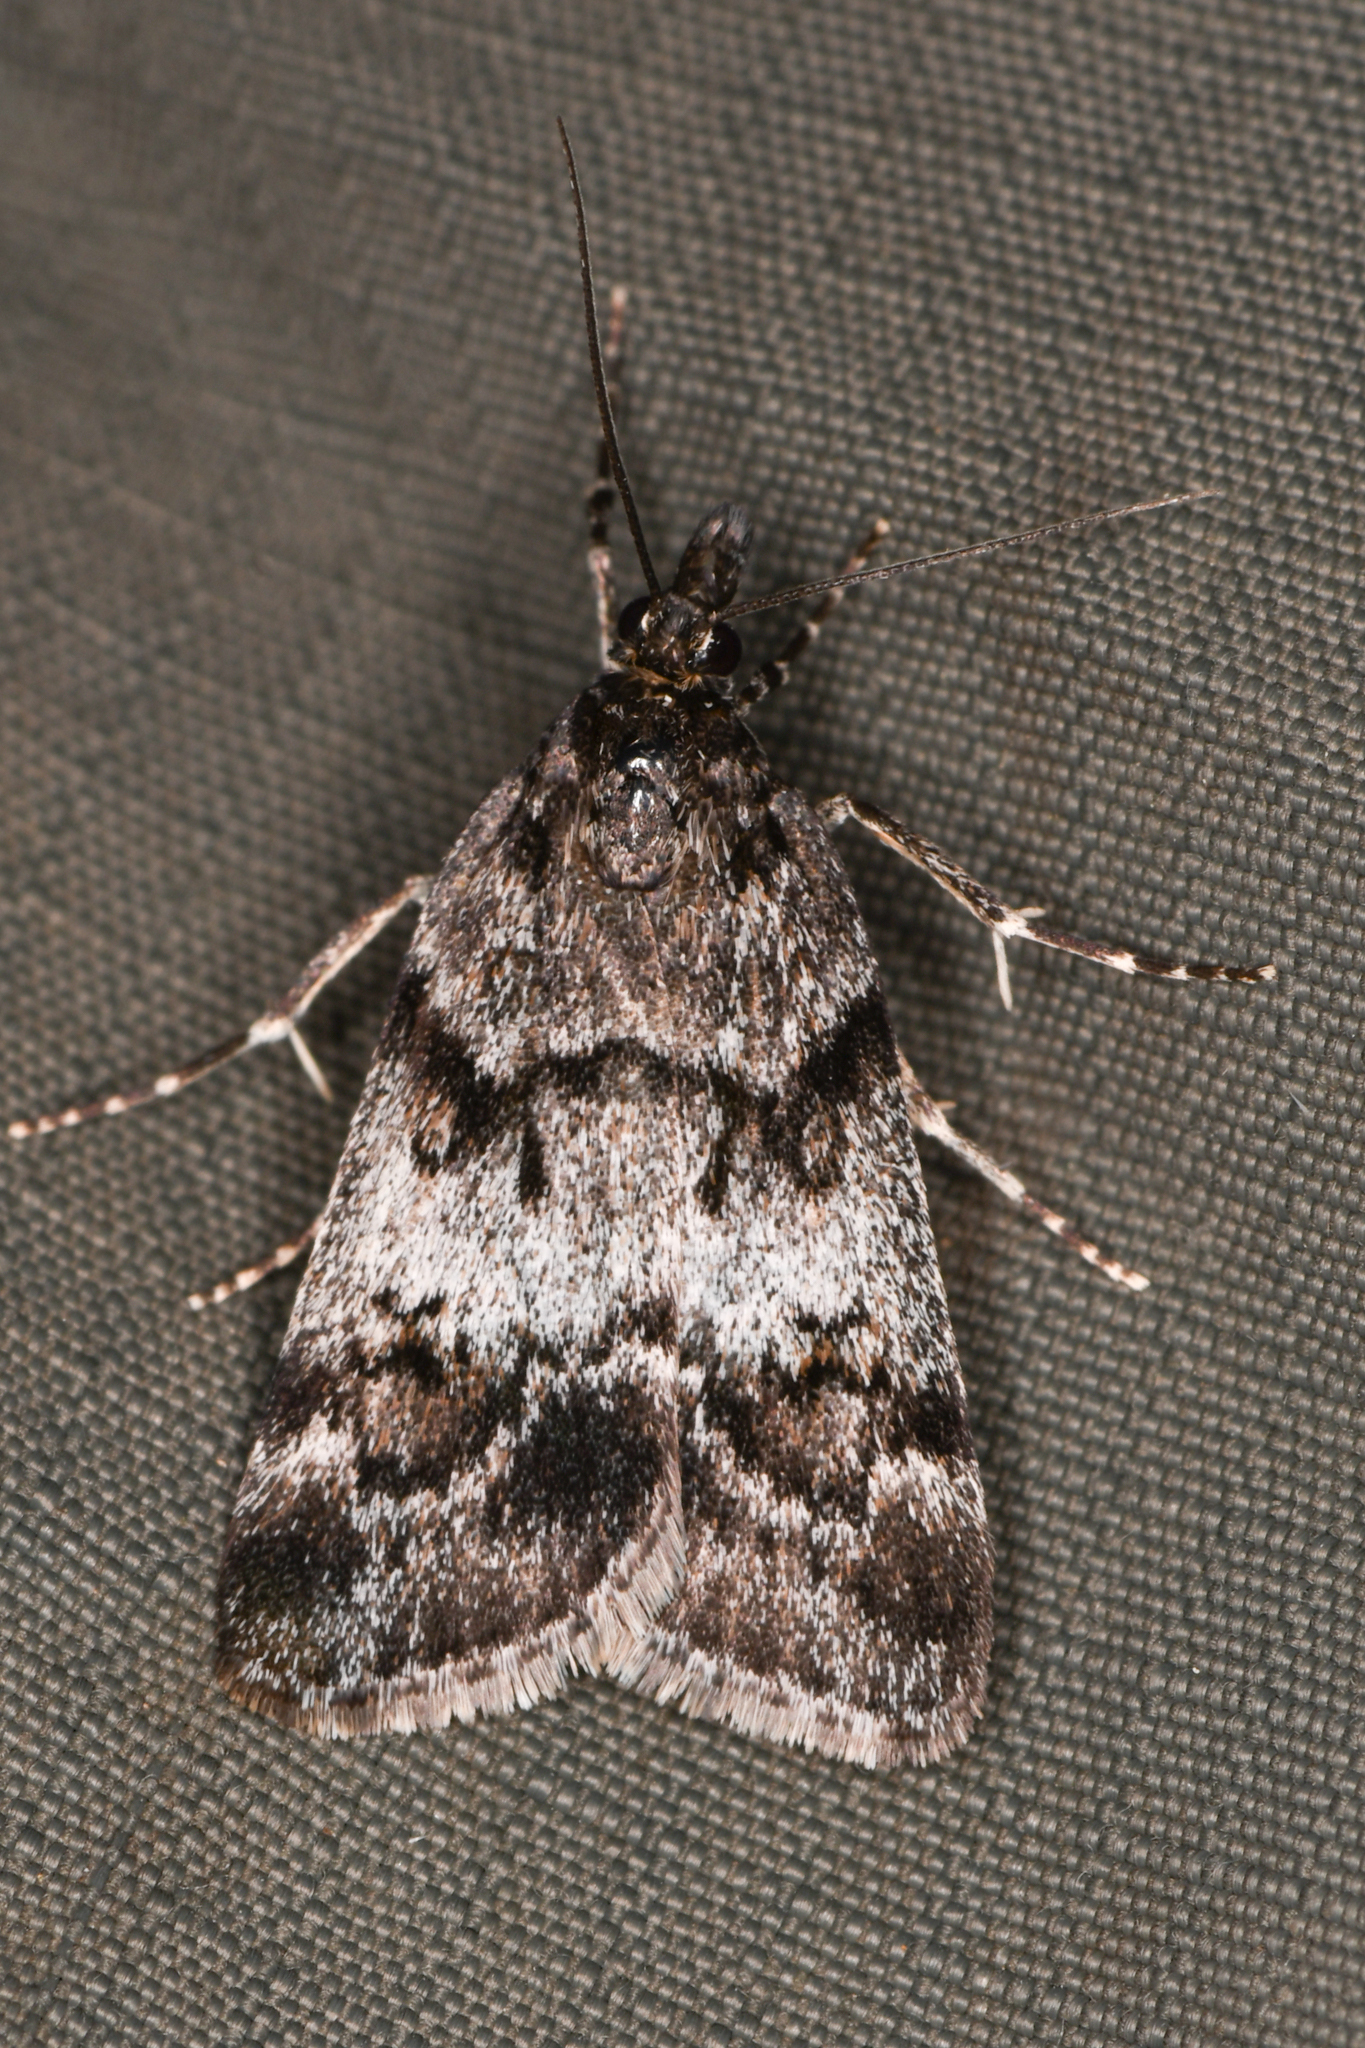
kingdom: Animalia
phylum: Arthropoda
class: Insecta
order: Lepidoptera
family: Crambidae
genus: Gesneria
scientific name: Gesneria centuriella
